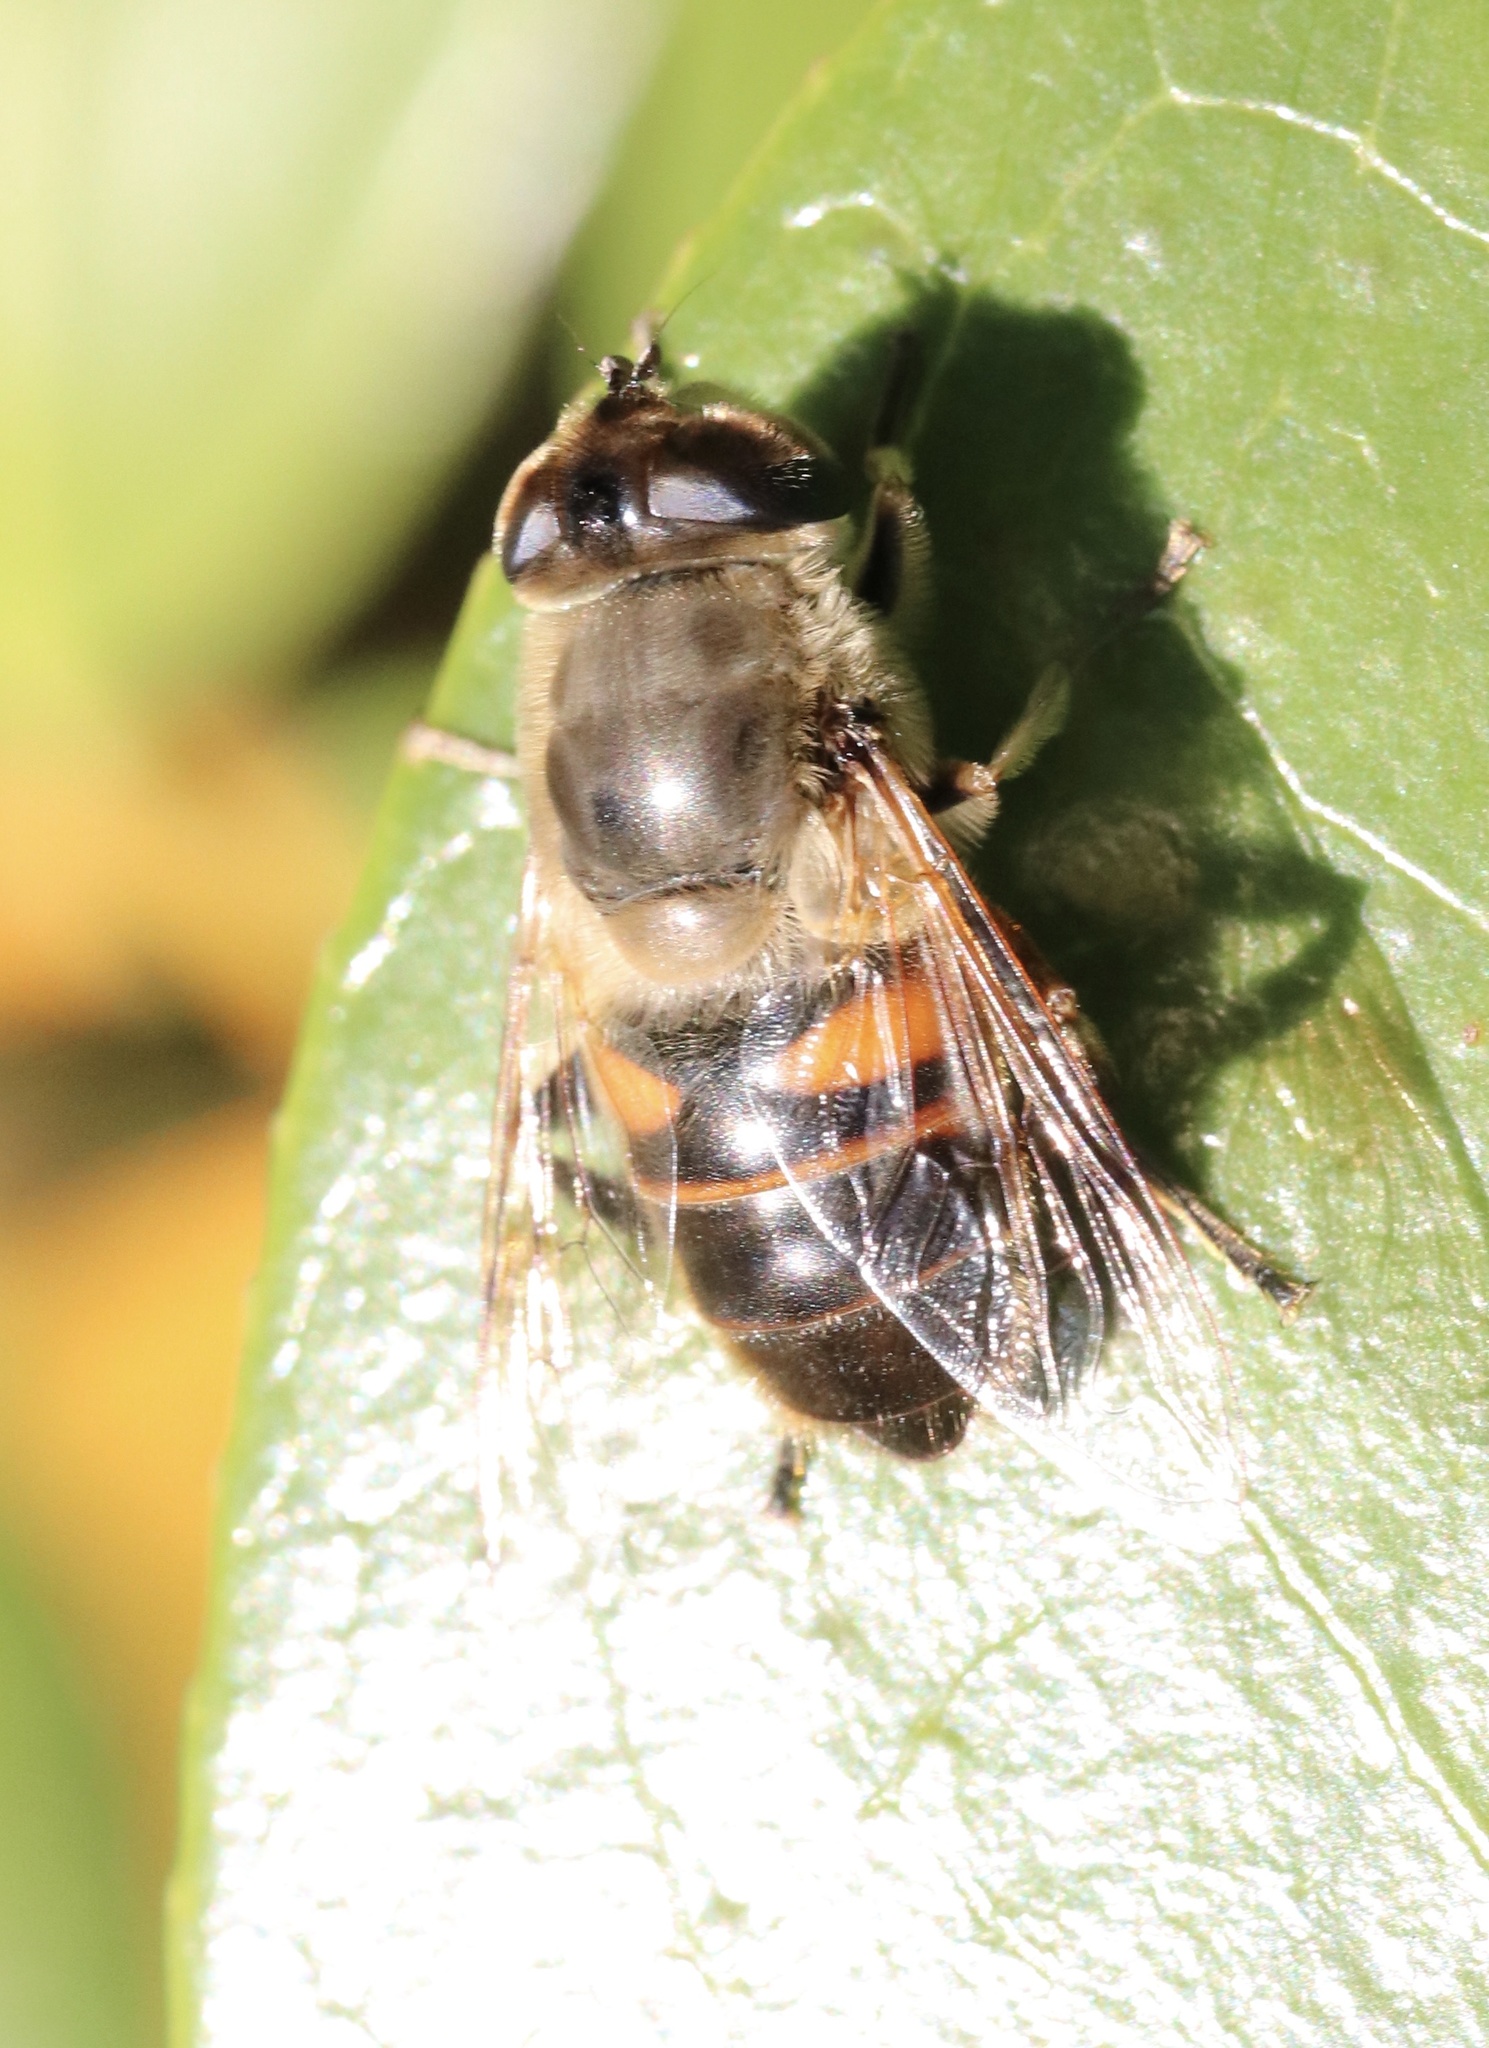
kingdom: Animalia
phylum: Arthropoda
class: Insecta
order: Diptera
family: Syrphidae
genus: Eristalis
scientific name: Eristalis tenax
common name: Drone fly
